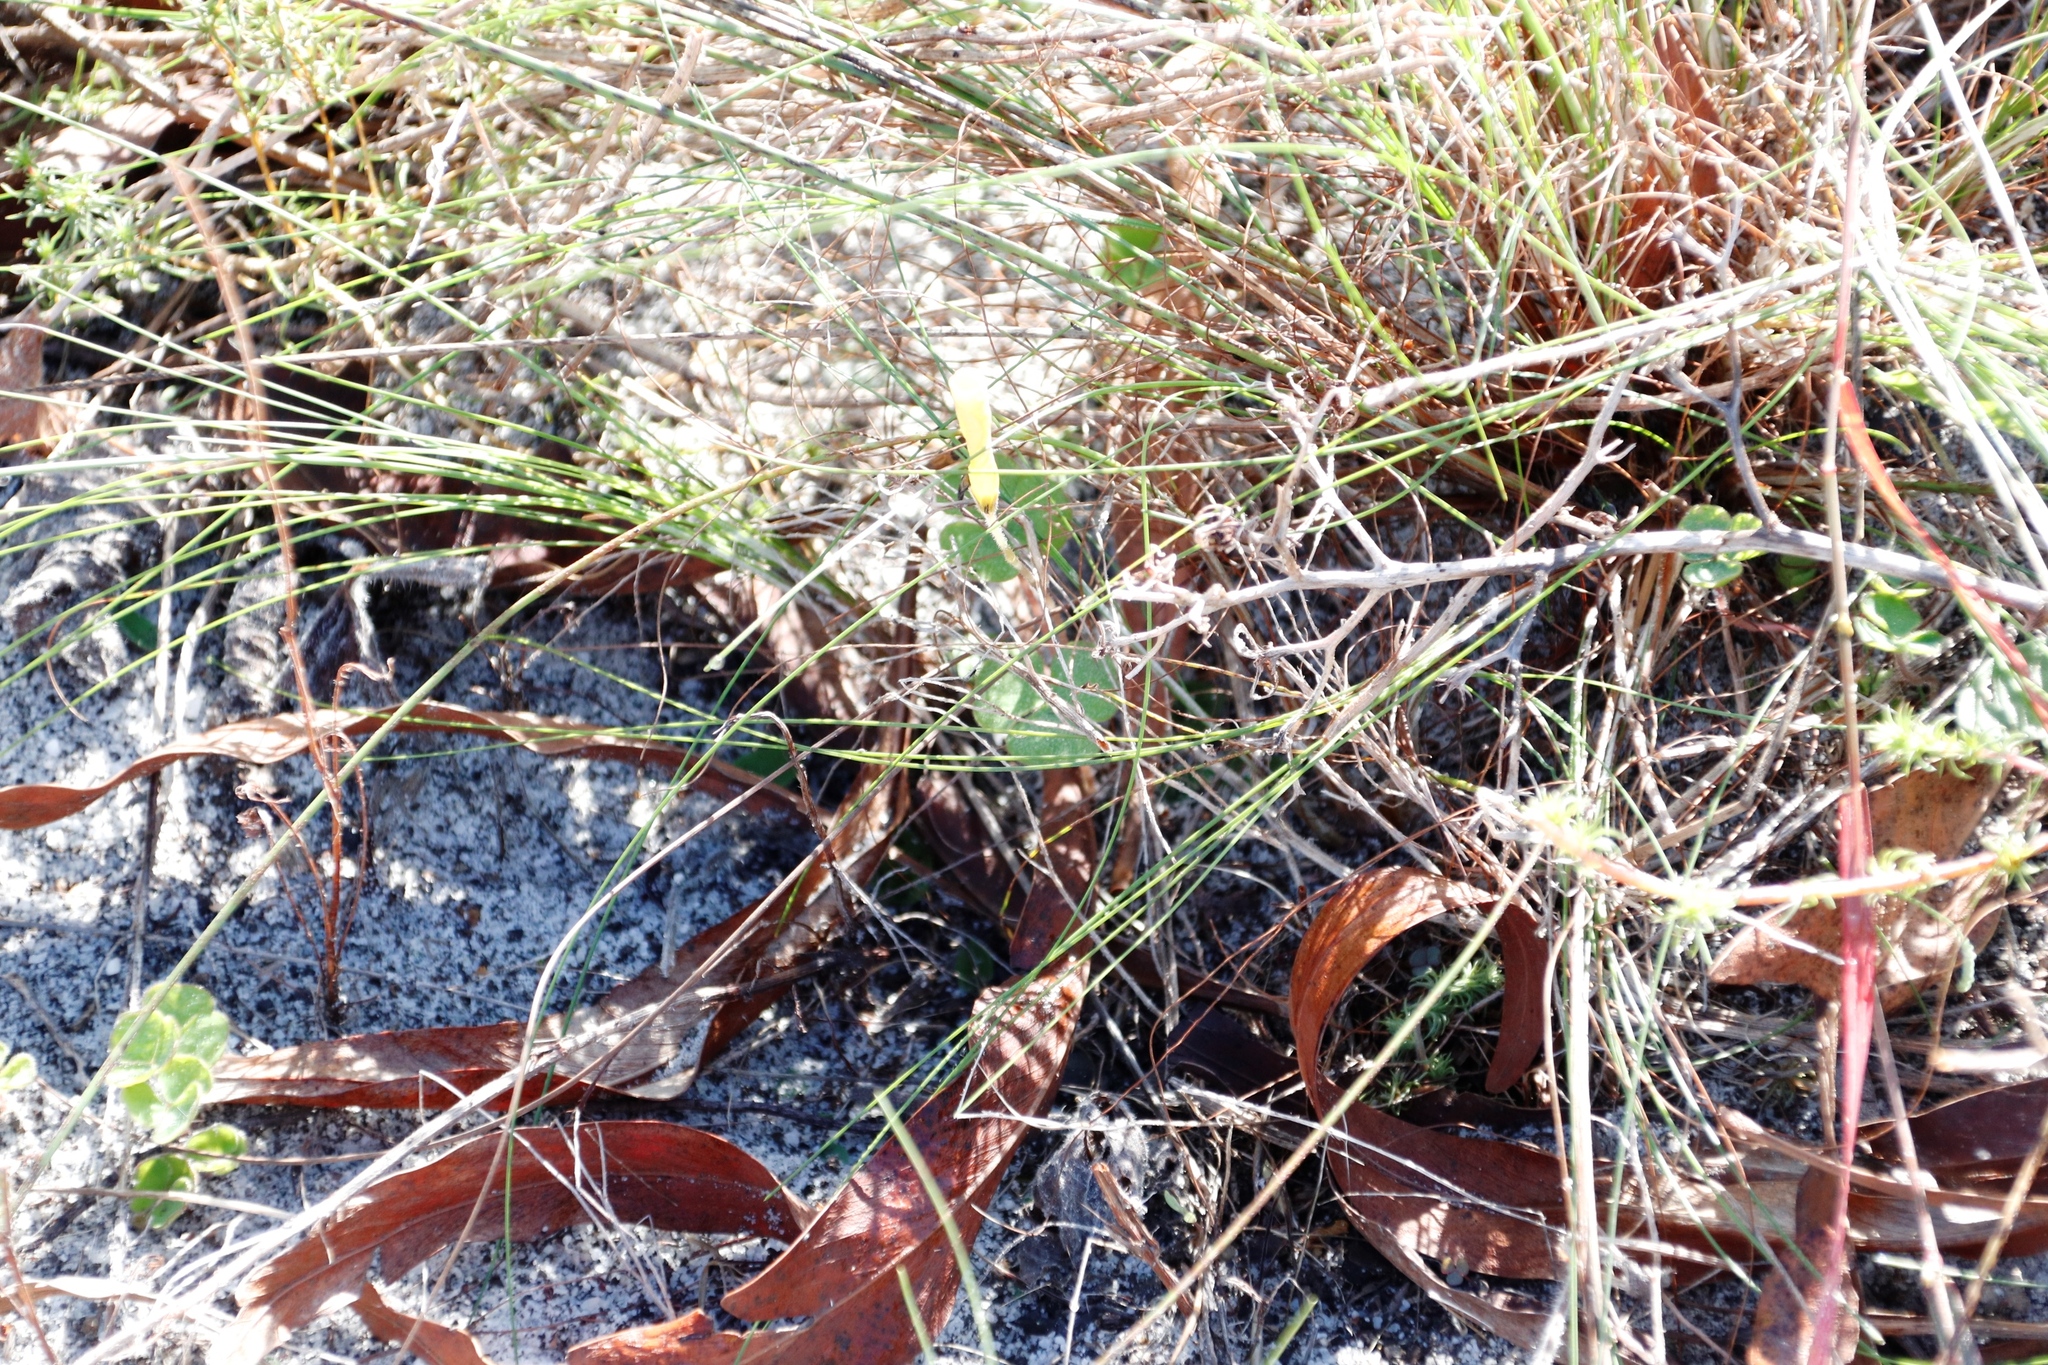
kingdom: Plantae
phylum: Tracheophyta
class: Magnoliopsida
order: Oxalidales
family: Oxalidaceae
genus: Oxalis
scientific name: Oxalis luteola
